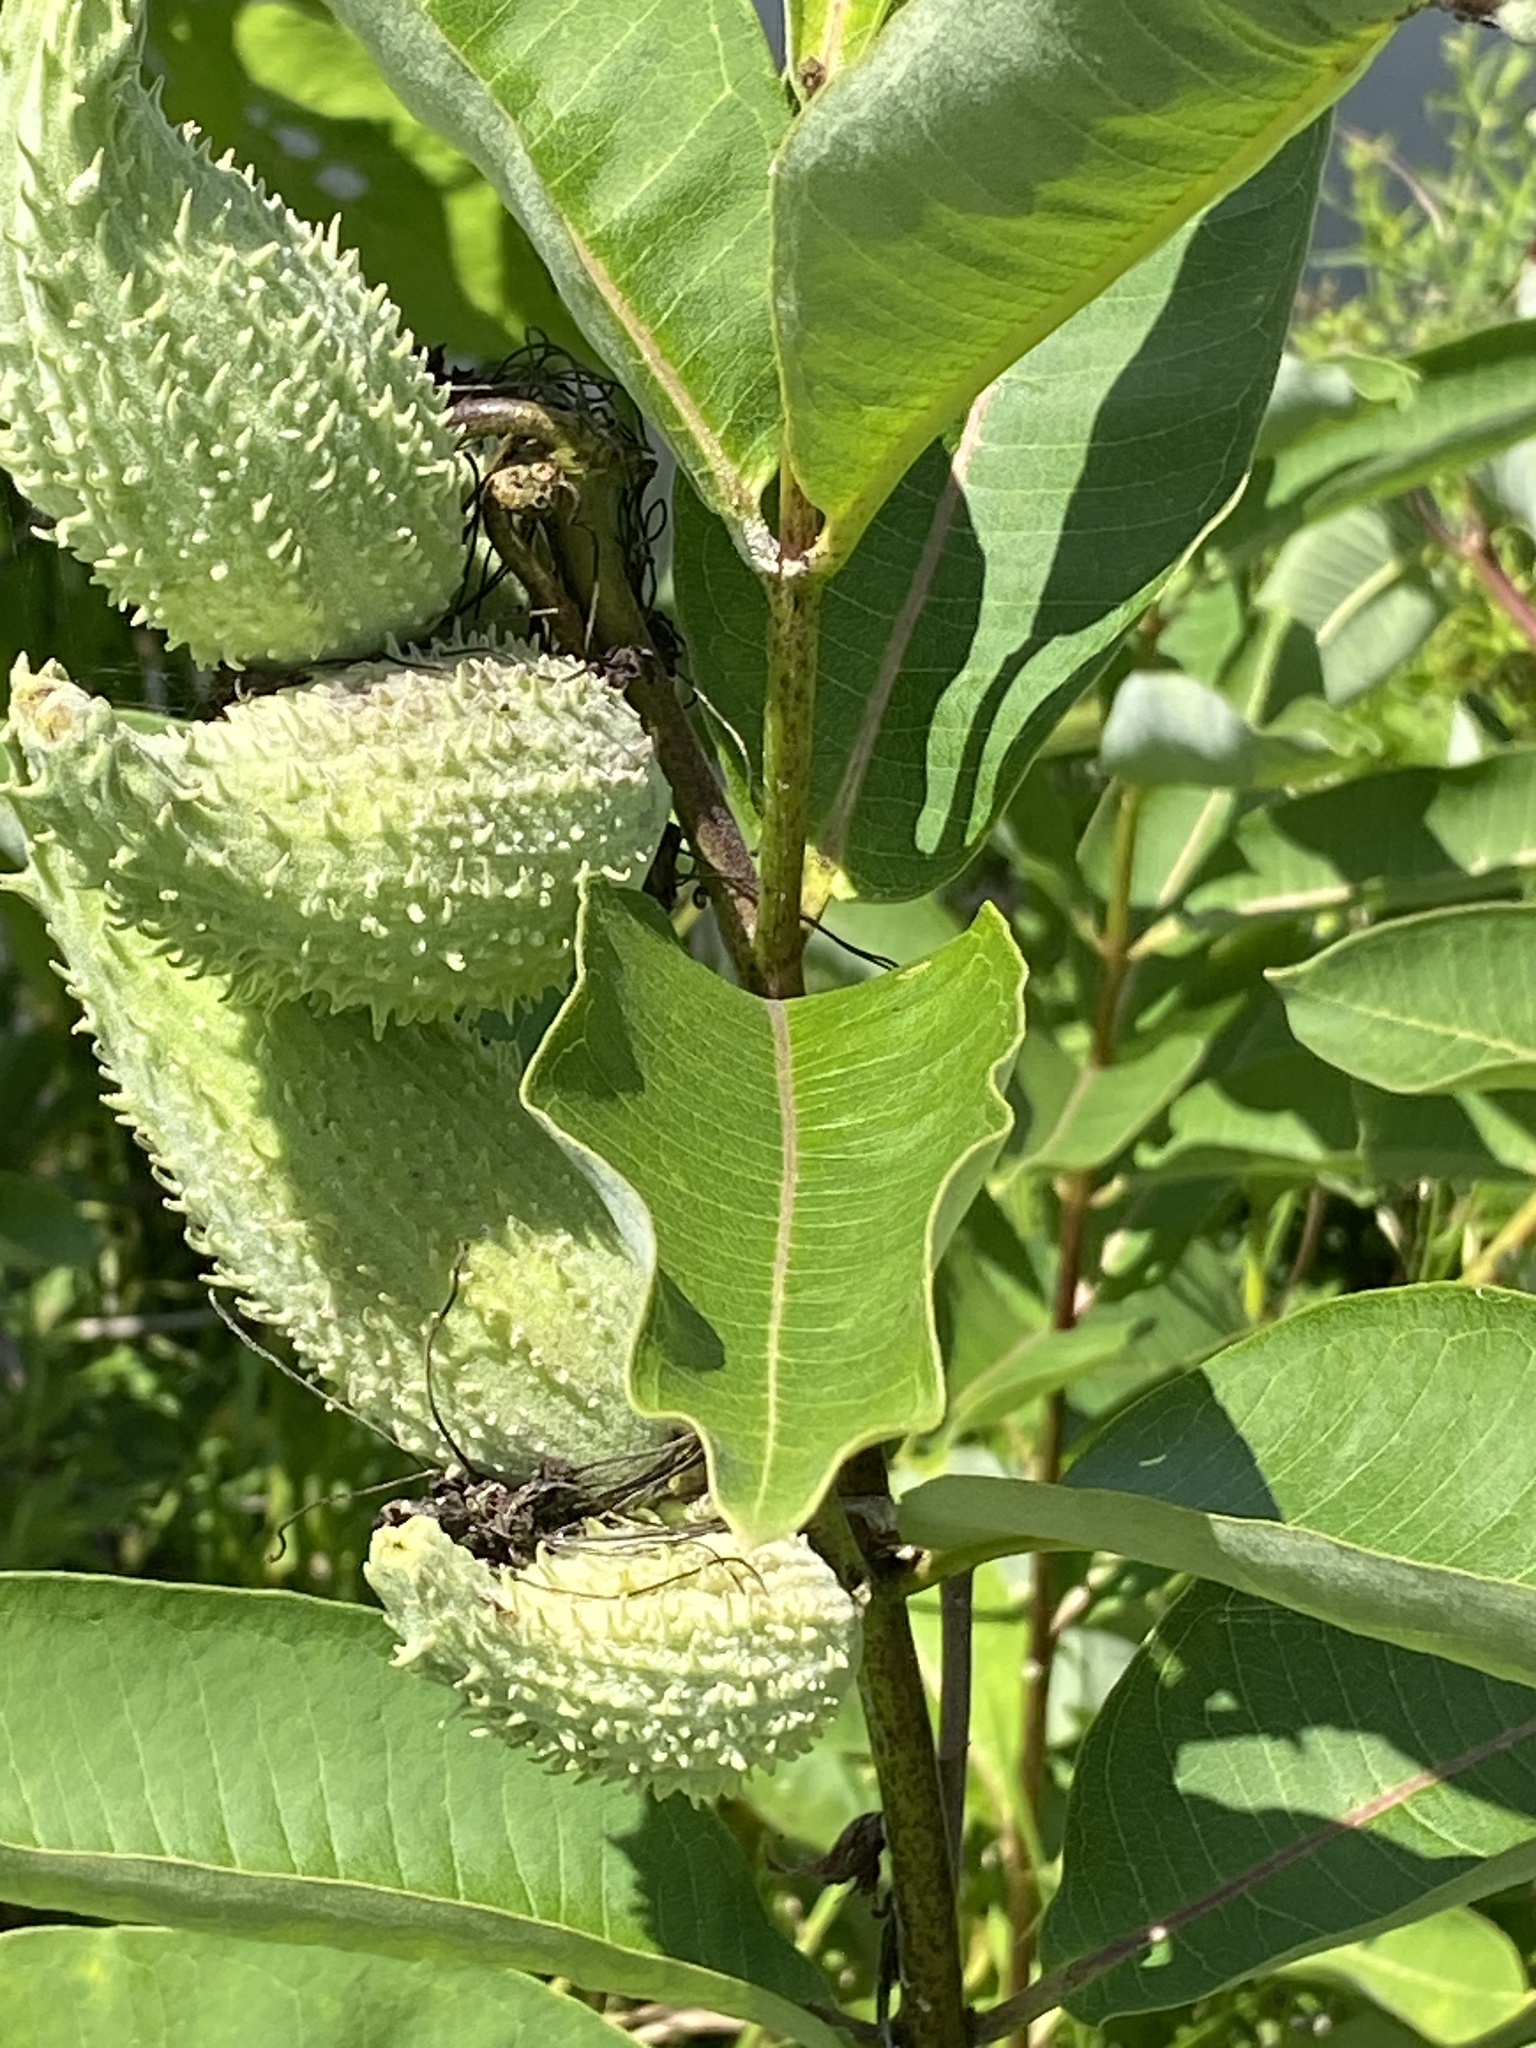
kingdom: Plantae
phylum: Tracheophyta
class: Magnoliopsida
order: Gentianales
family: Apocynaceae
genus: Asclepias
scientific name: Asclepias syriaca
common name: Common milkweed
